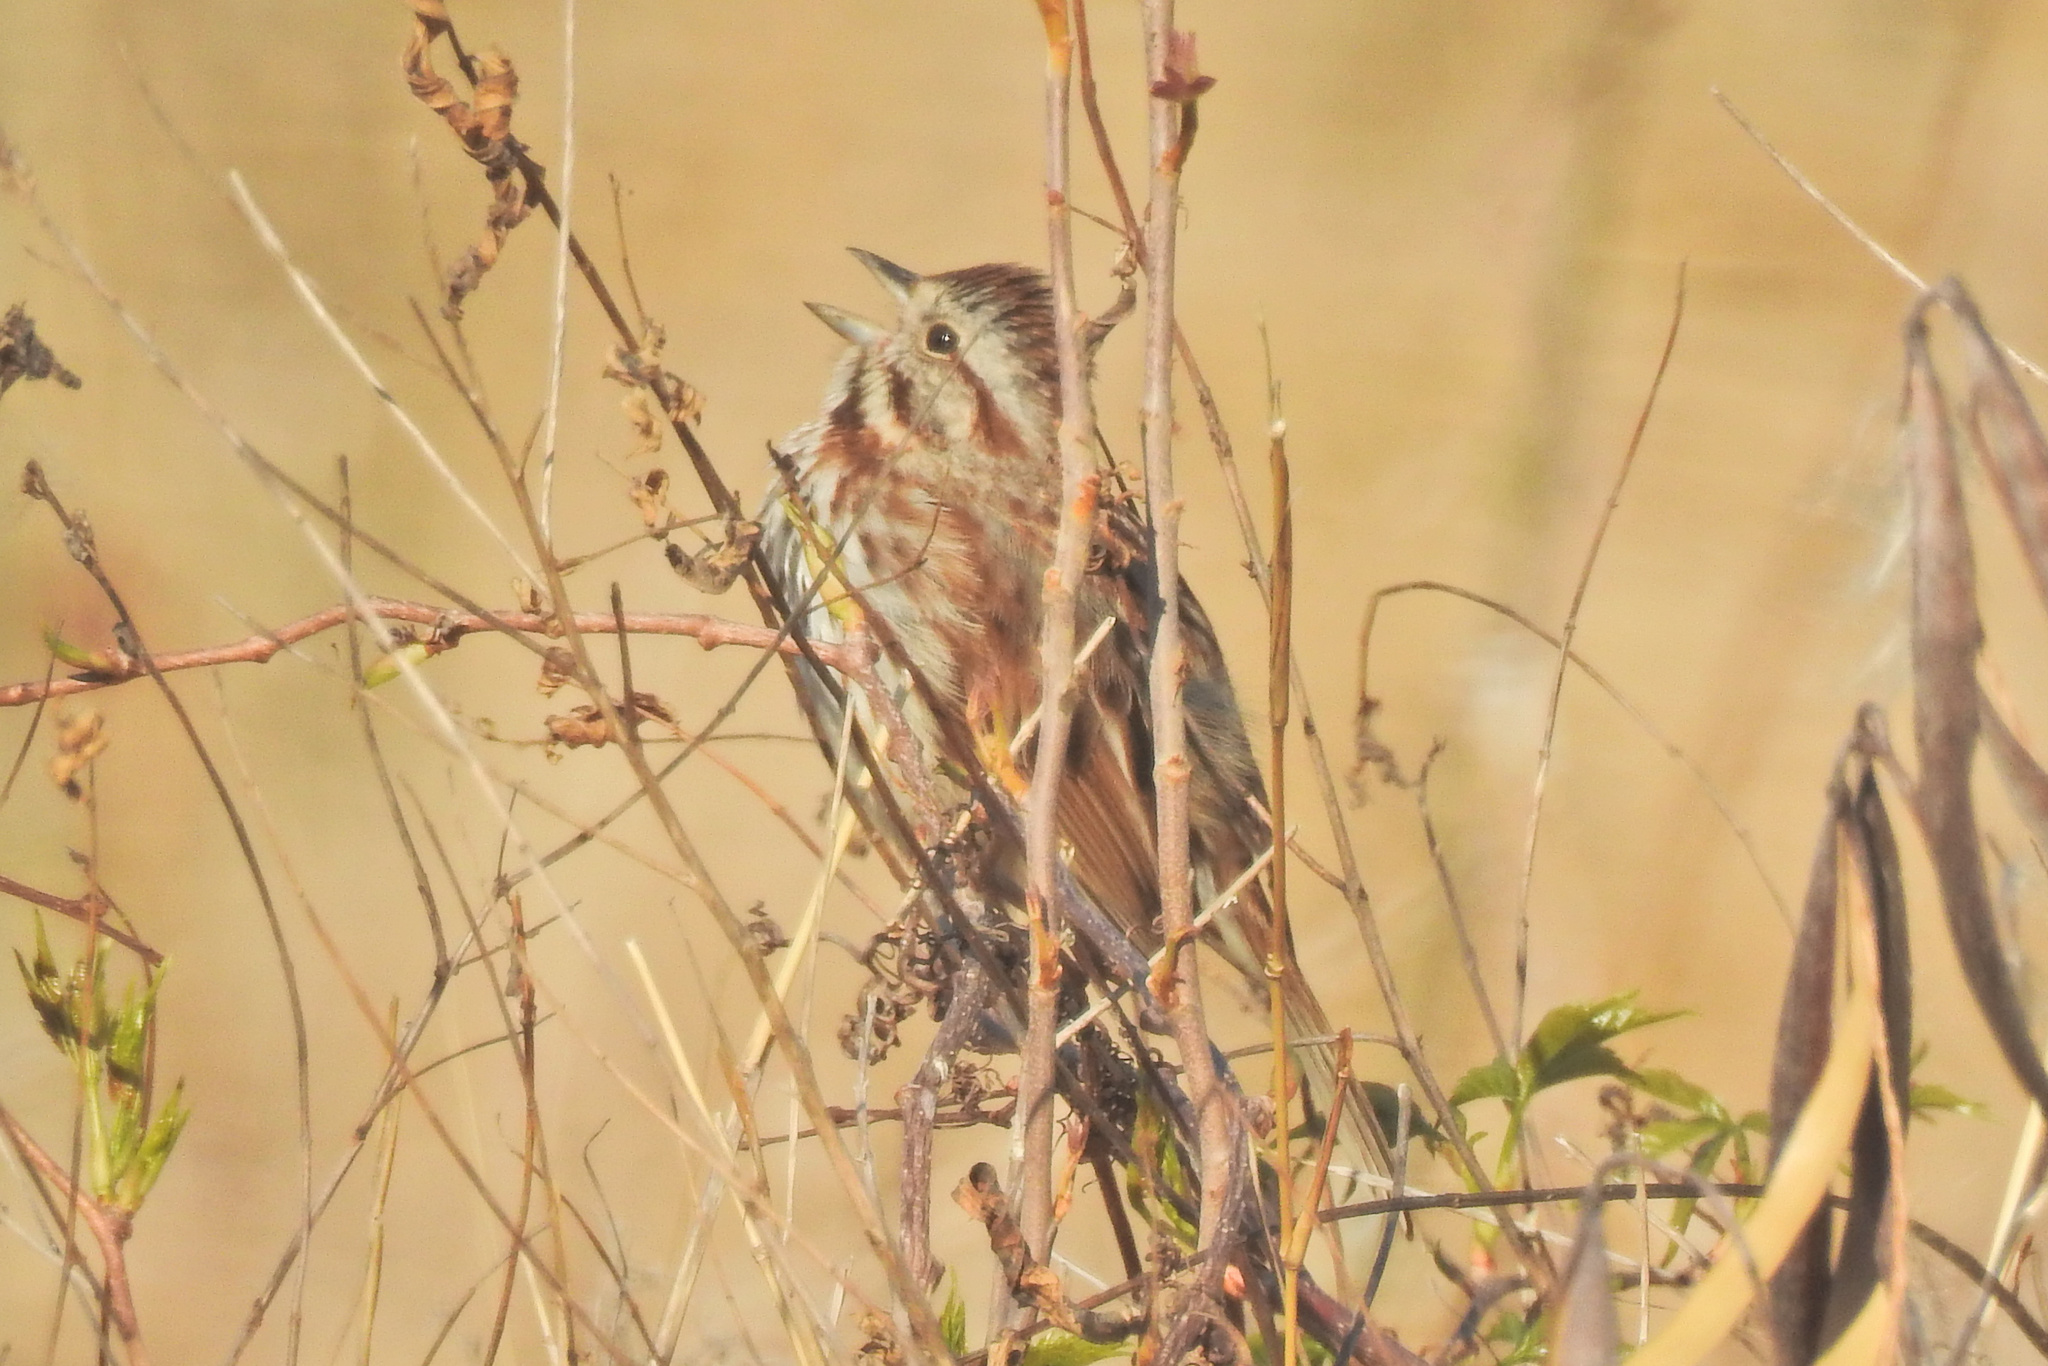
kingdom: Animalia
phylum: Chordata
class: Aves
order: Passeriformes
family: Passerellidae
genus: Melospiza
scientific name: Melospiza melodia
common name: Song sparrow
